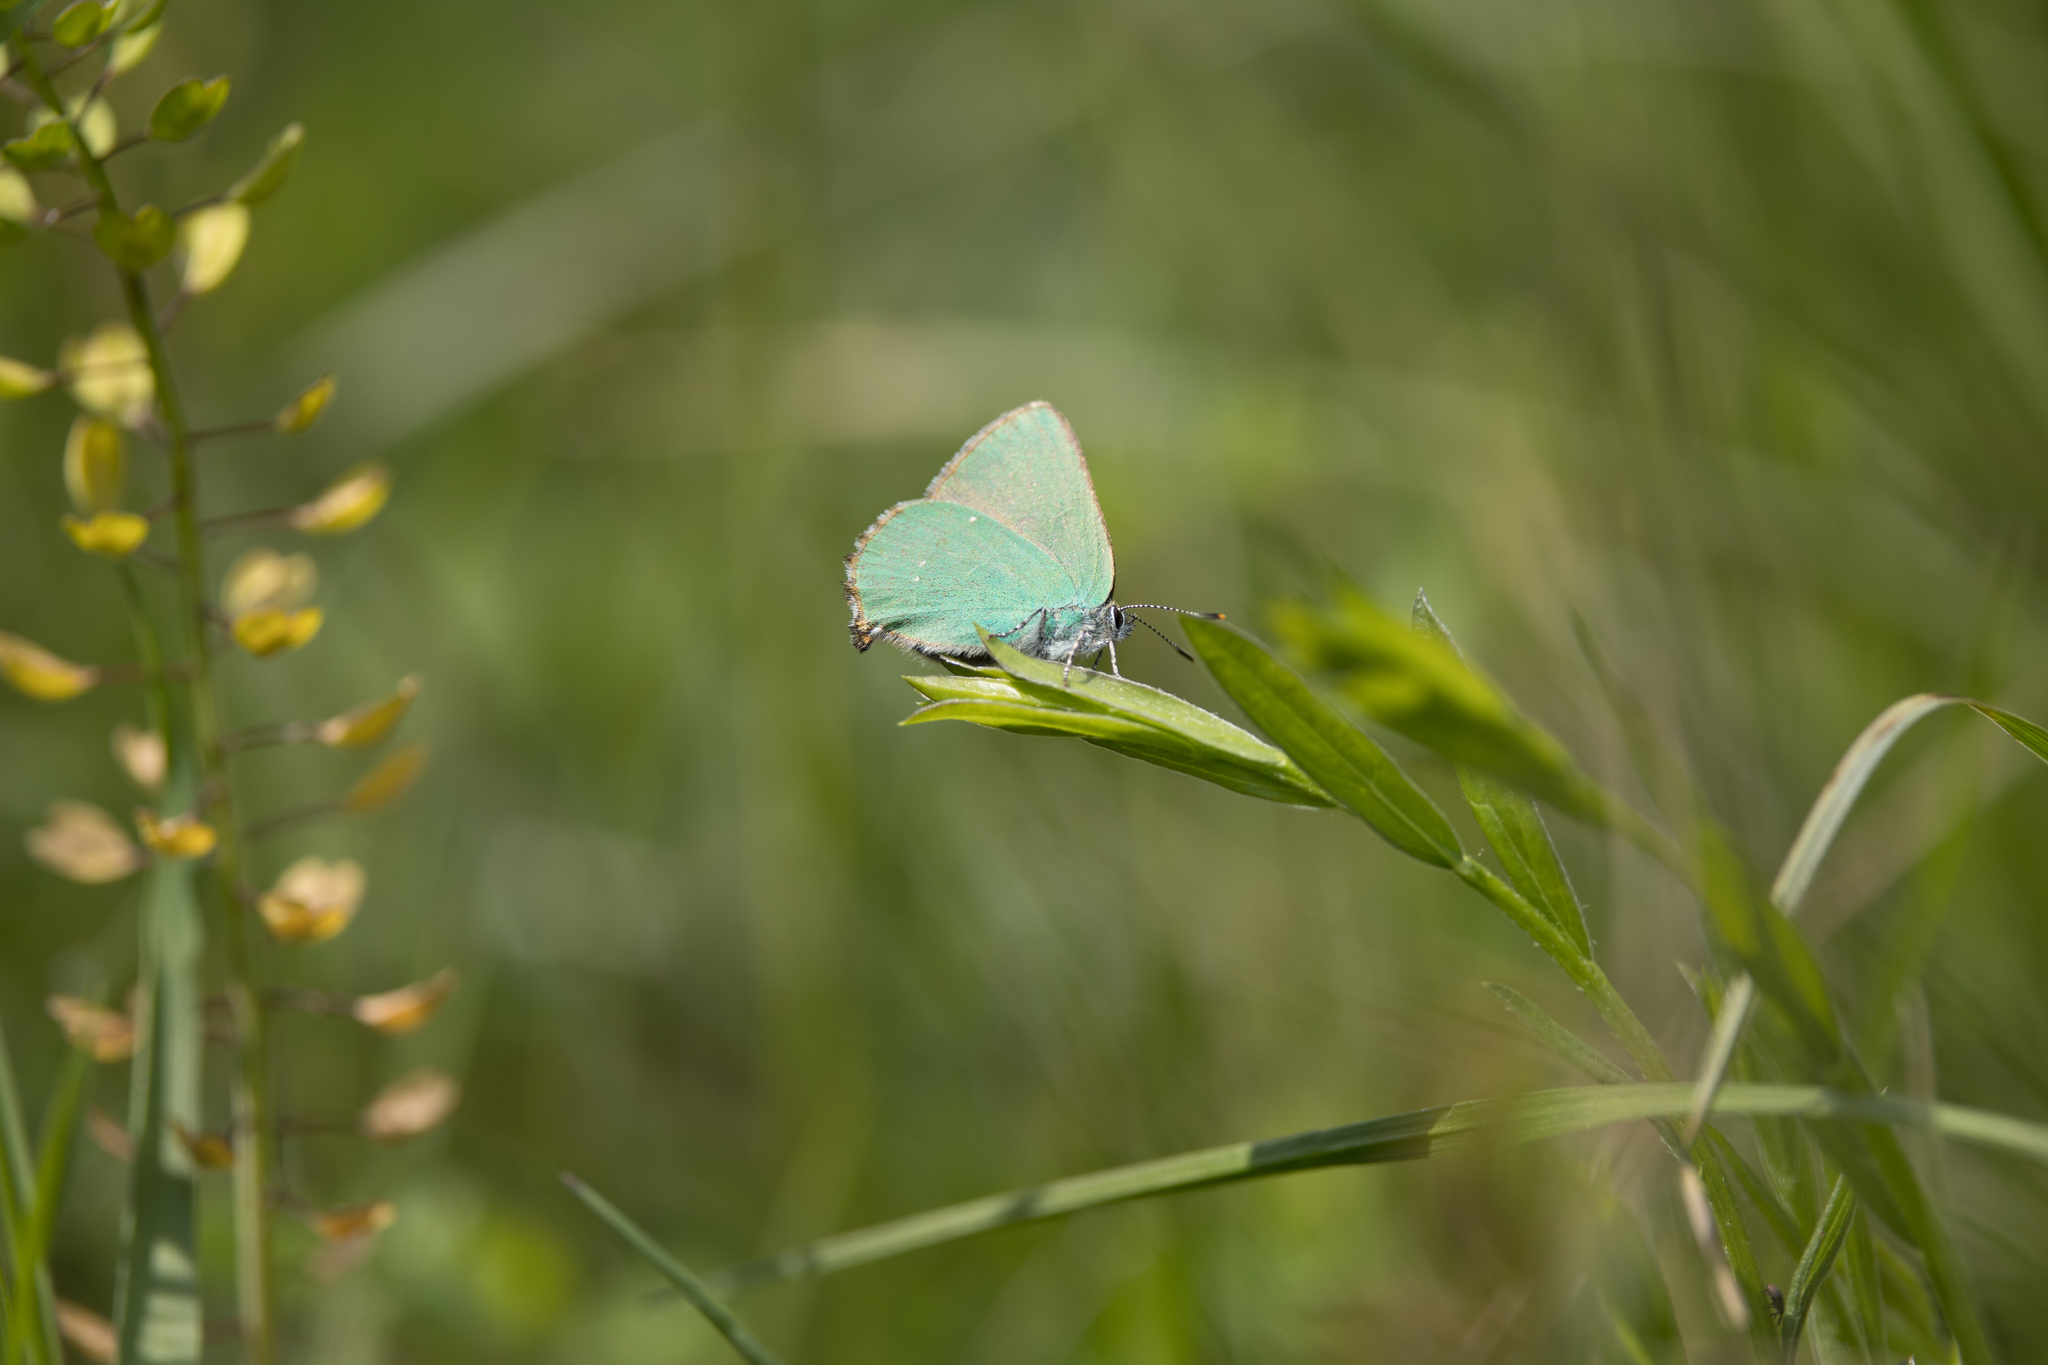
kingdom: Animalia
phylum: Arthropoda
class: Insecta
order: Lepidoptera
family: Lycaenidae
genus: Callophrys
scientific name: Callophrys rubi
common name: Green hairstreak
